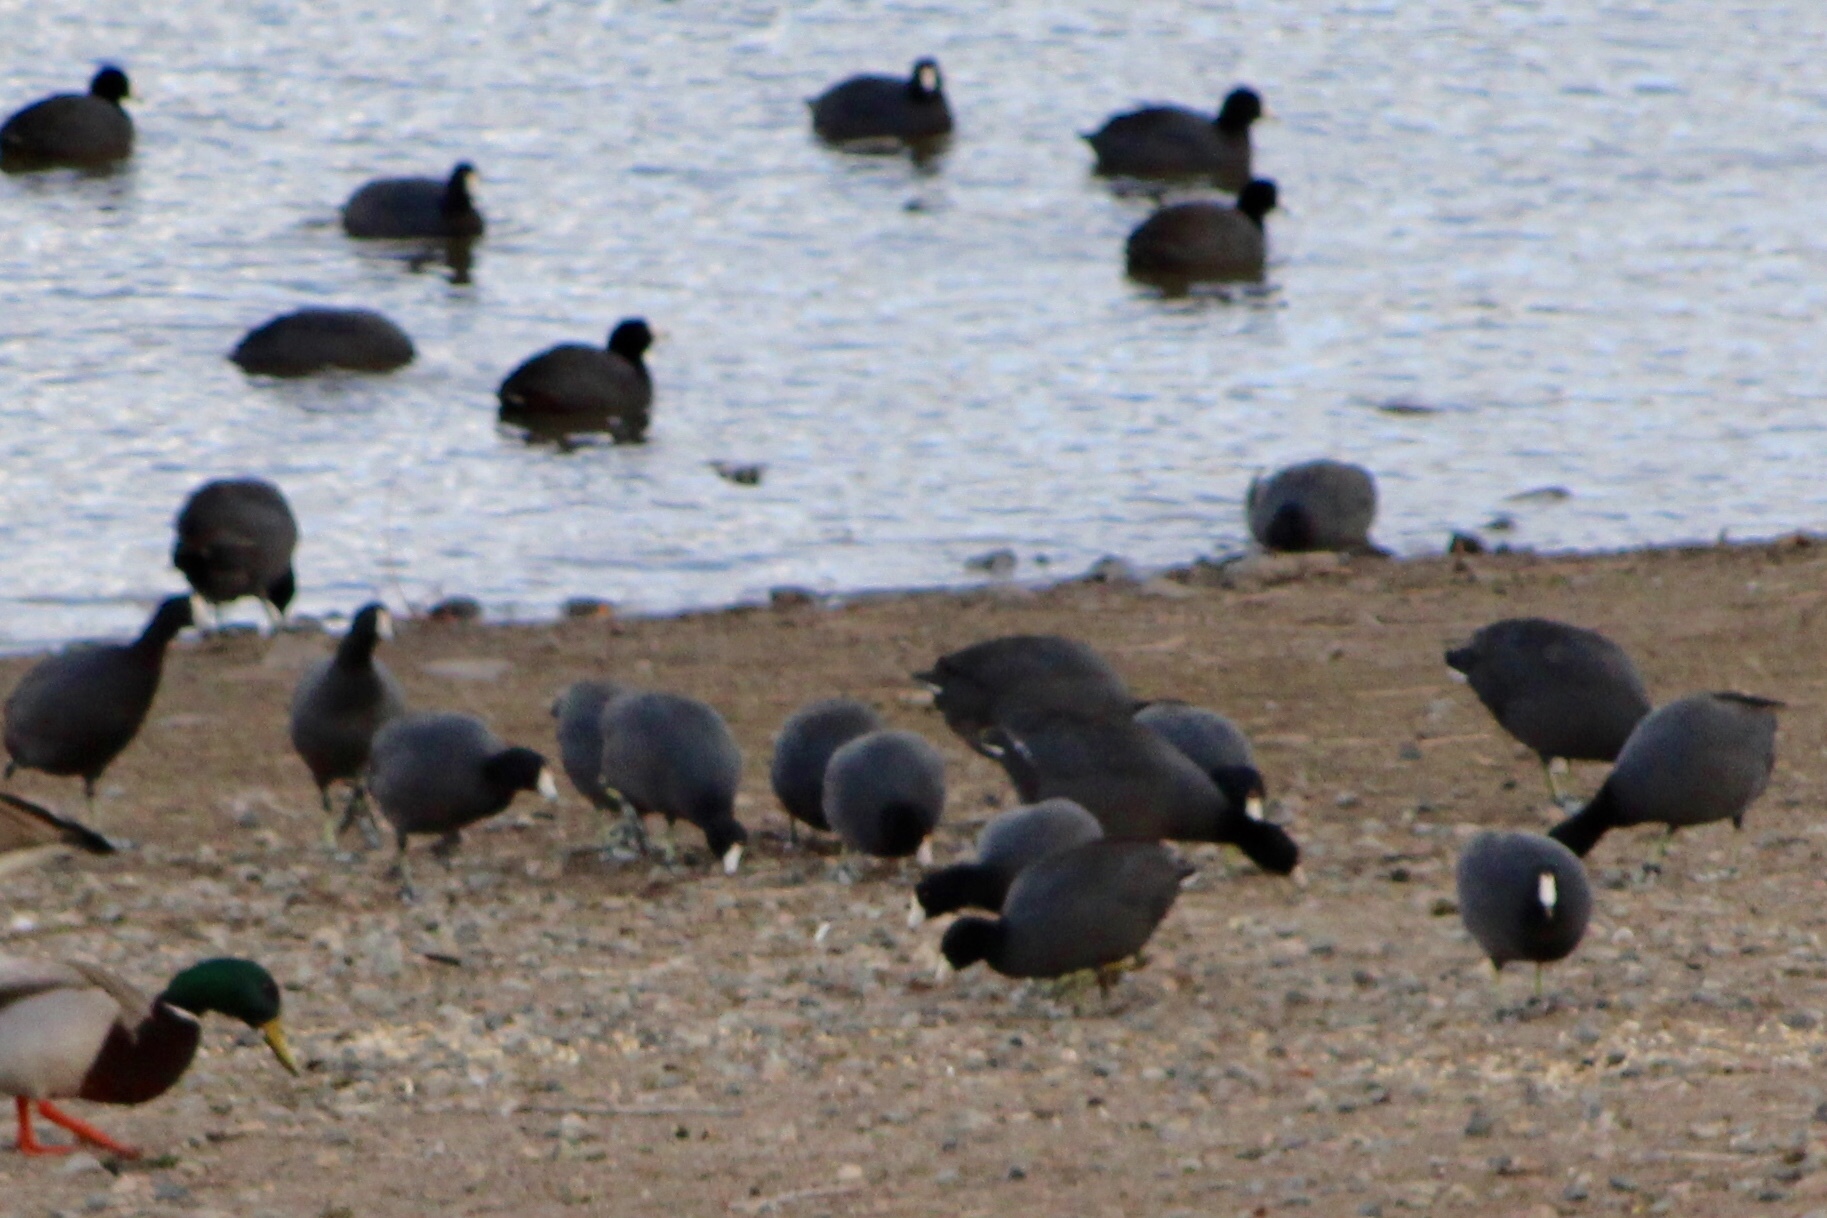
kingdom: Animalia
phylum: Chordata
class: Aves
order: Gruiformes
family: Rallidae
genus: Fulica
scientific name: Fulica americana
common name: American coot
